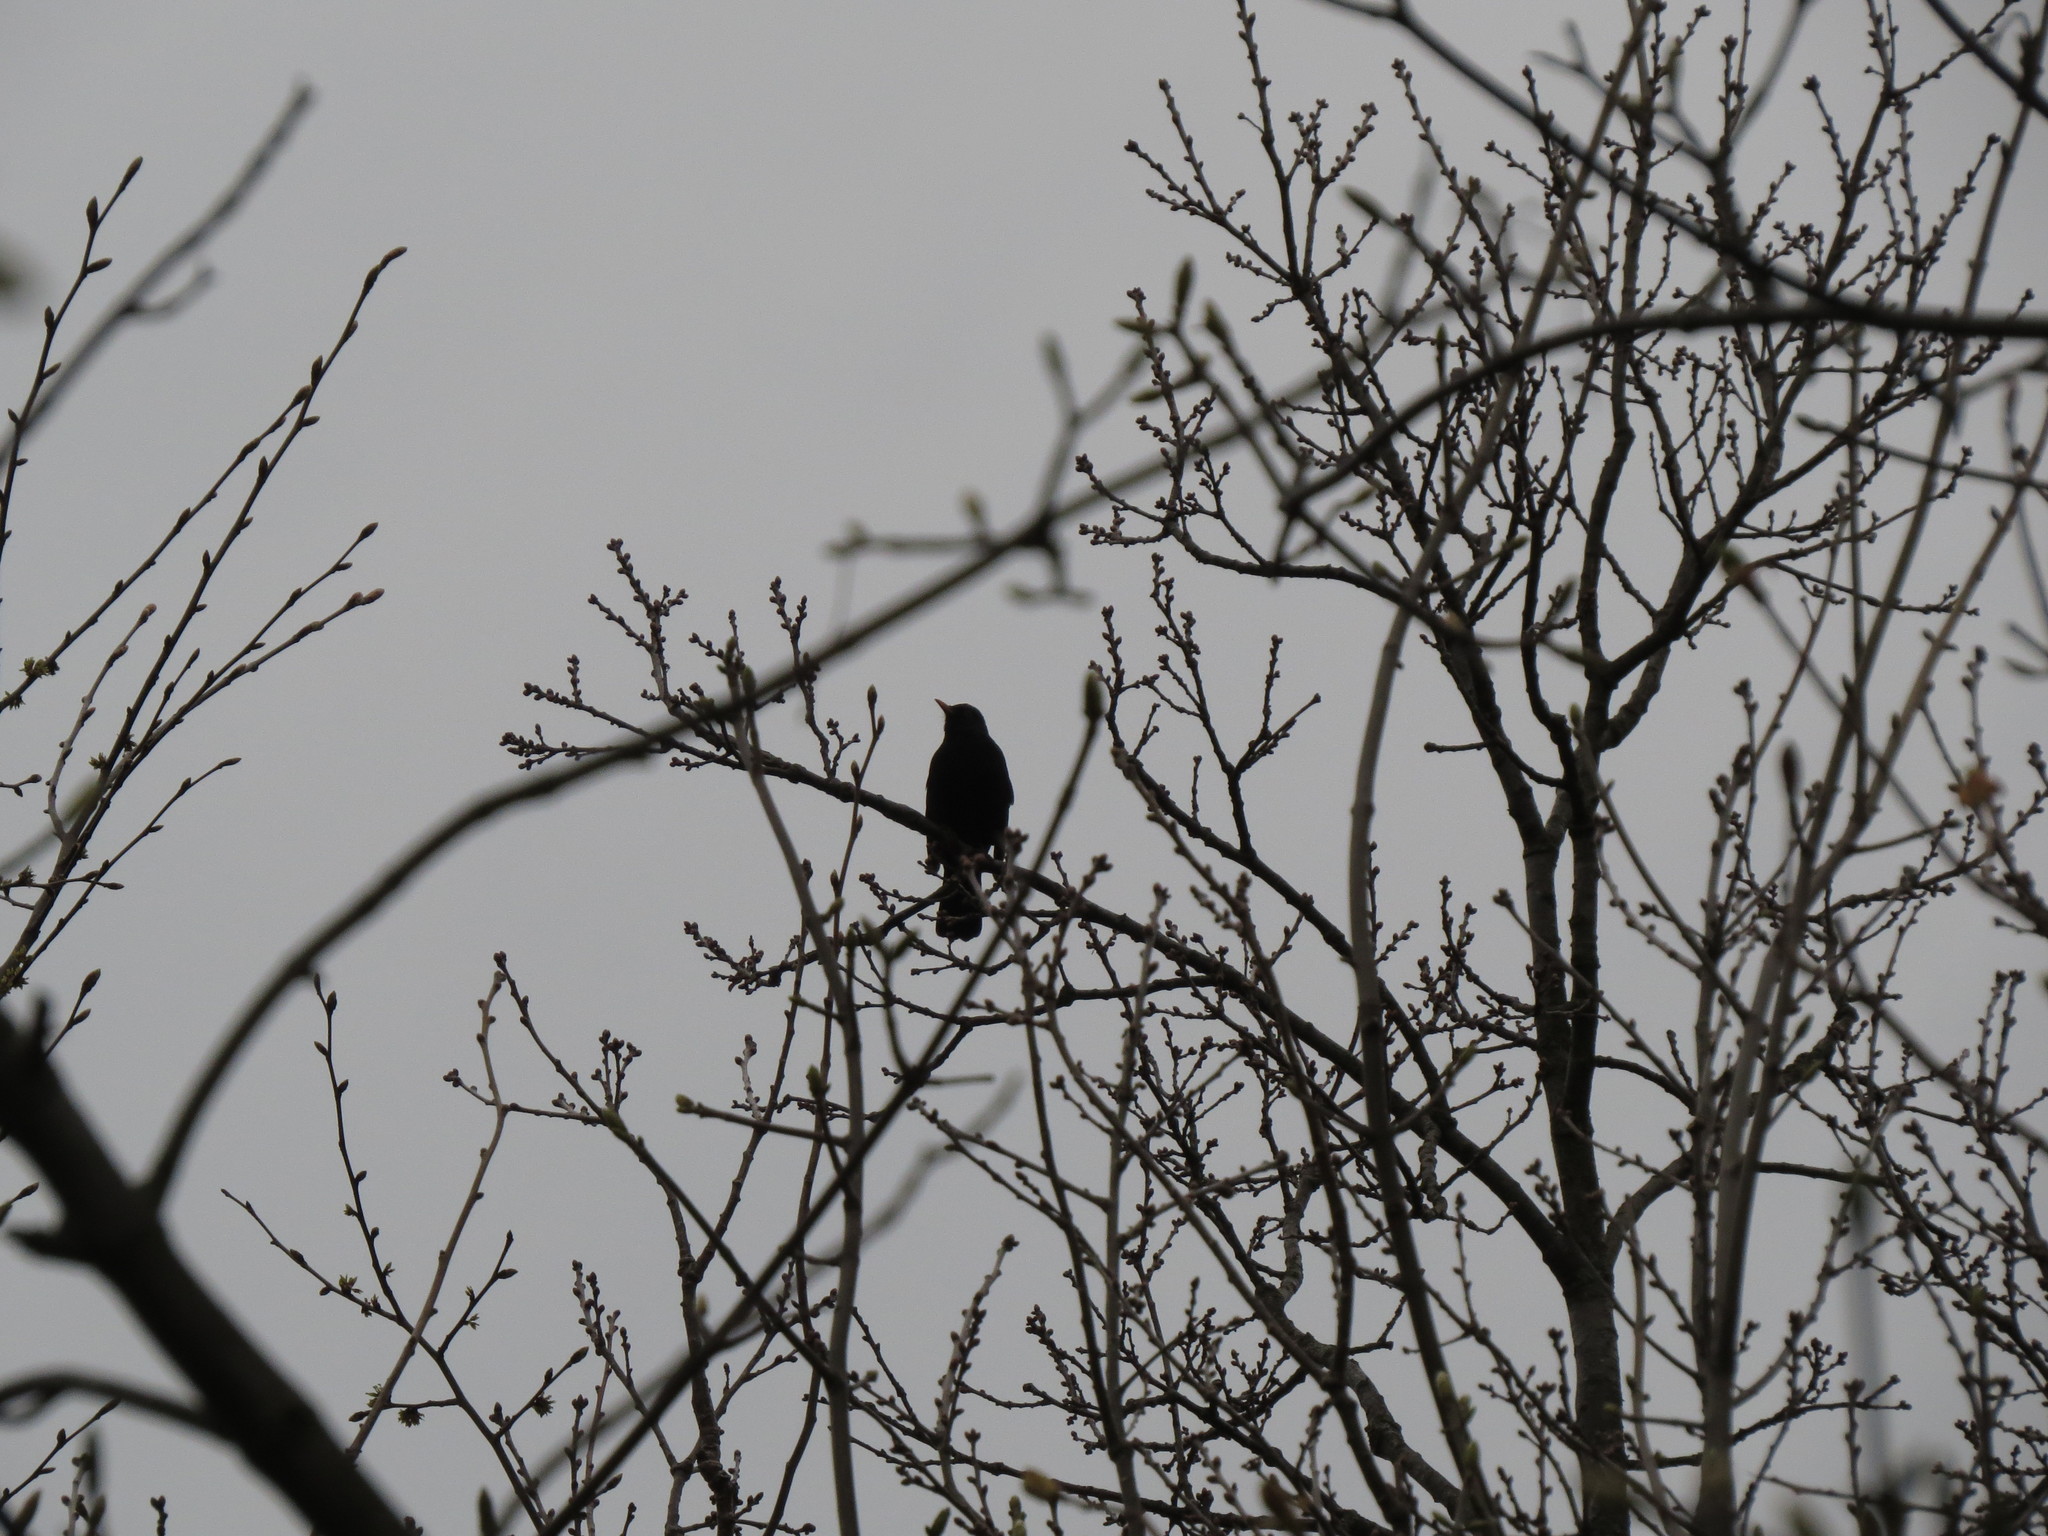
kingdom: Animalia
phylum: Chordata
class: Aves
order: Passeriformes
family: Turdidae
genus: Turdus
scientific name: Turdus merula
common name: Common blackbird
